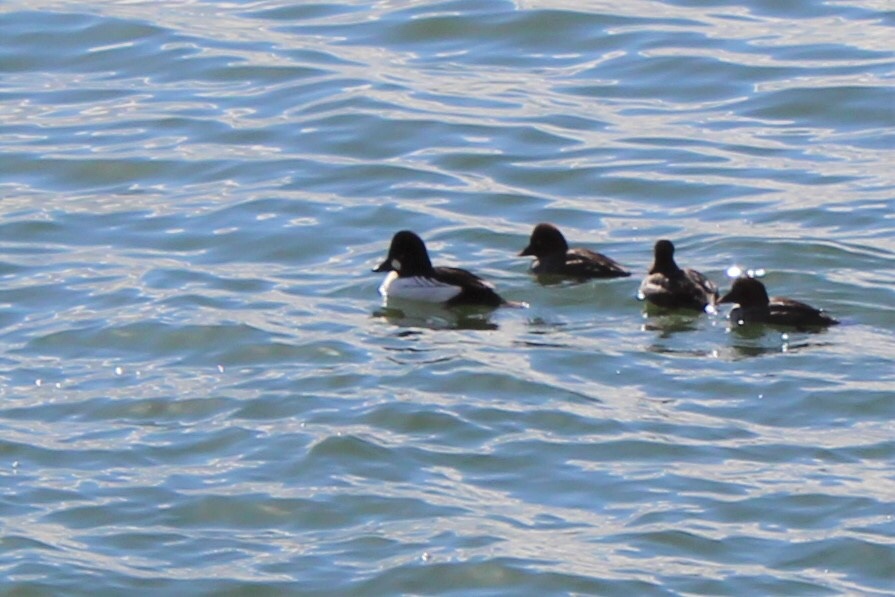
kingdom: Animalia
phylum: Chordata
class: Aves
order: Anseriformes
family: Anatidae
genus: Bucephala
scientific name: Bucephala clangula
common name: Common goldeneye
